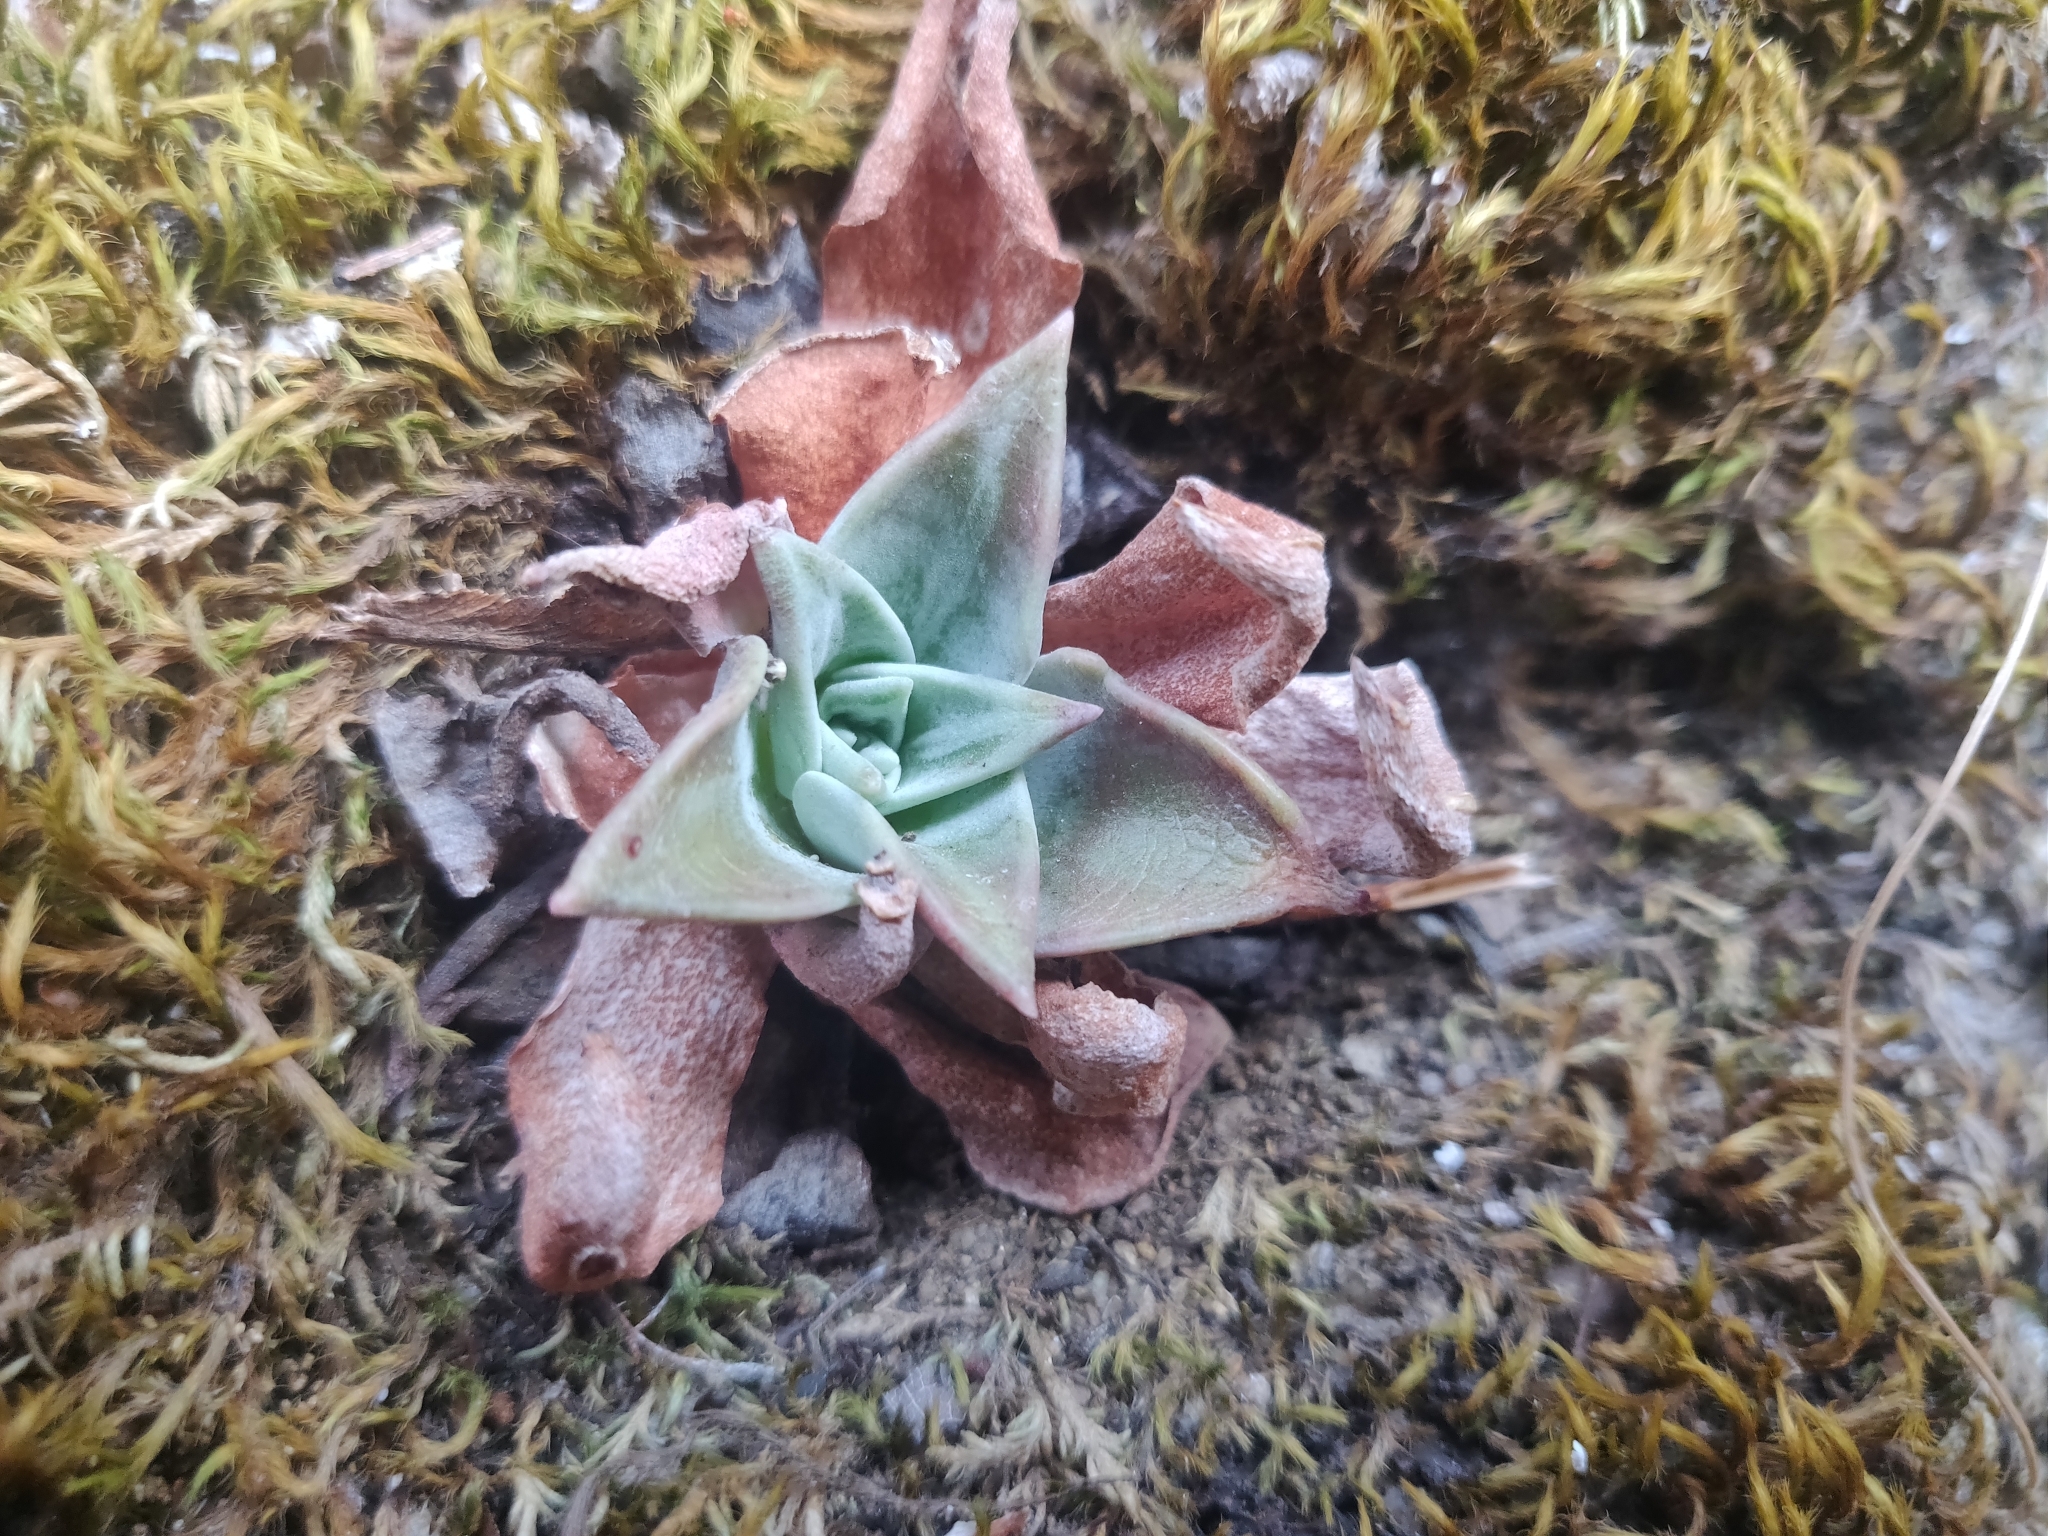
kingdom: Plantae
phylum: Tracheophyta
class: Magnoliopsida
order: Saxifragales
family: Crassulaceae
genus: Dudleya
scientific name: Dudleya cymosa
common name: Canyon dudleya
